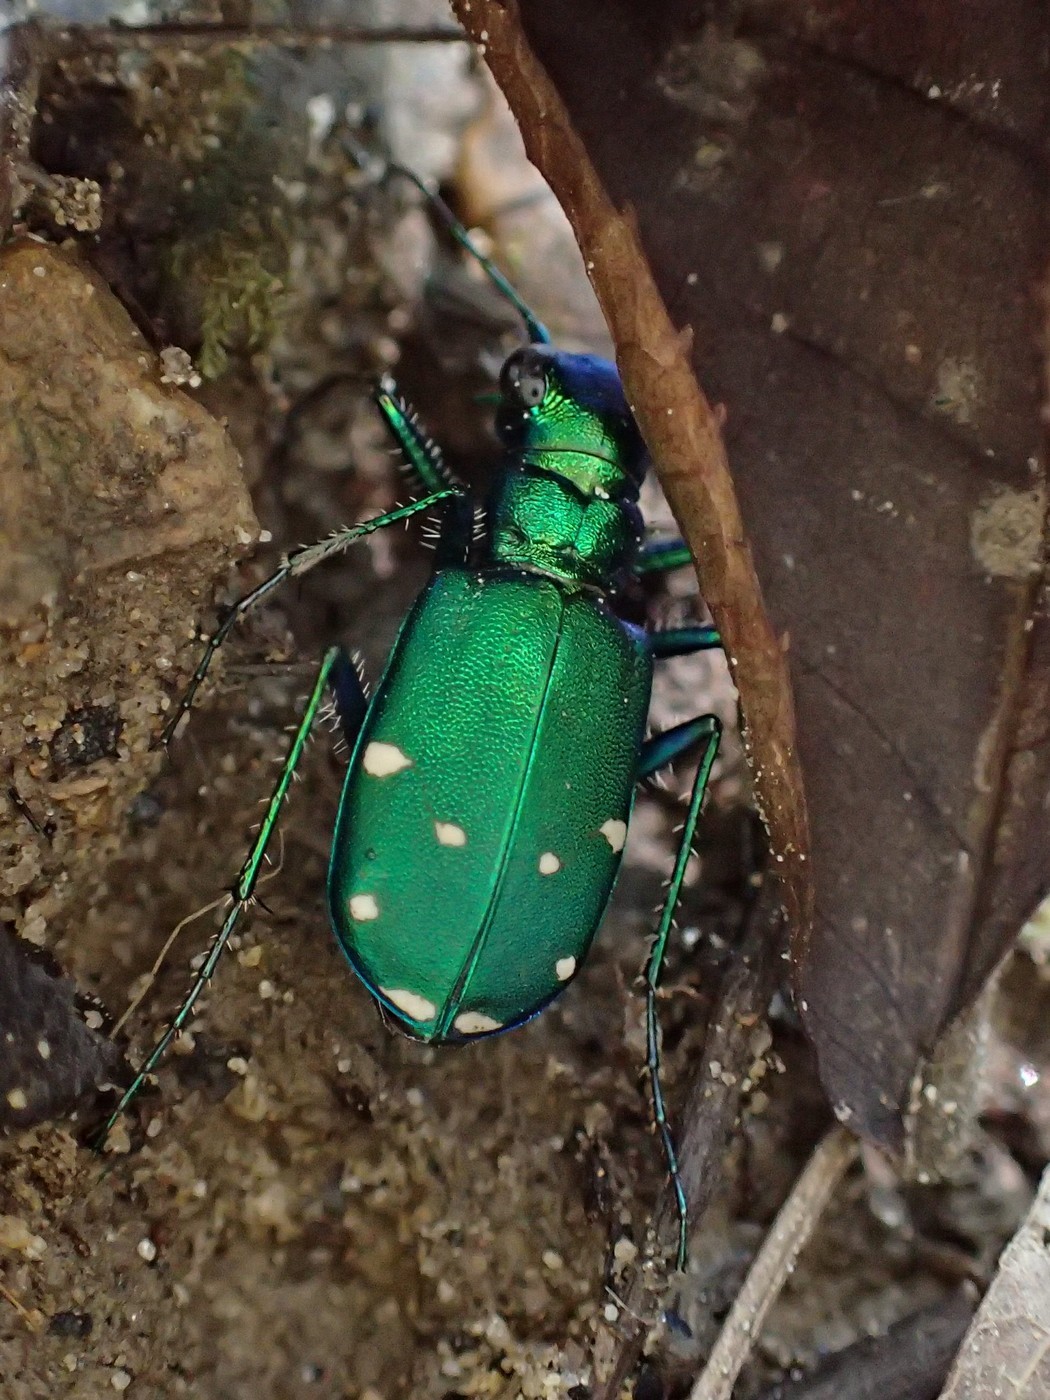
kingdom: Animalia
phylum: Arthropoda
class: Insecta
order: Coleoptera
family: Carabidae
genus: Cicindela
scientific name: Cicindela sexguttata
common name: Six-spotted tiger beetle
